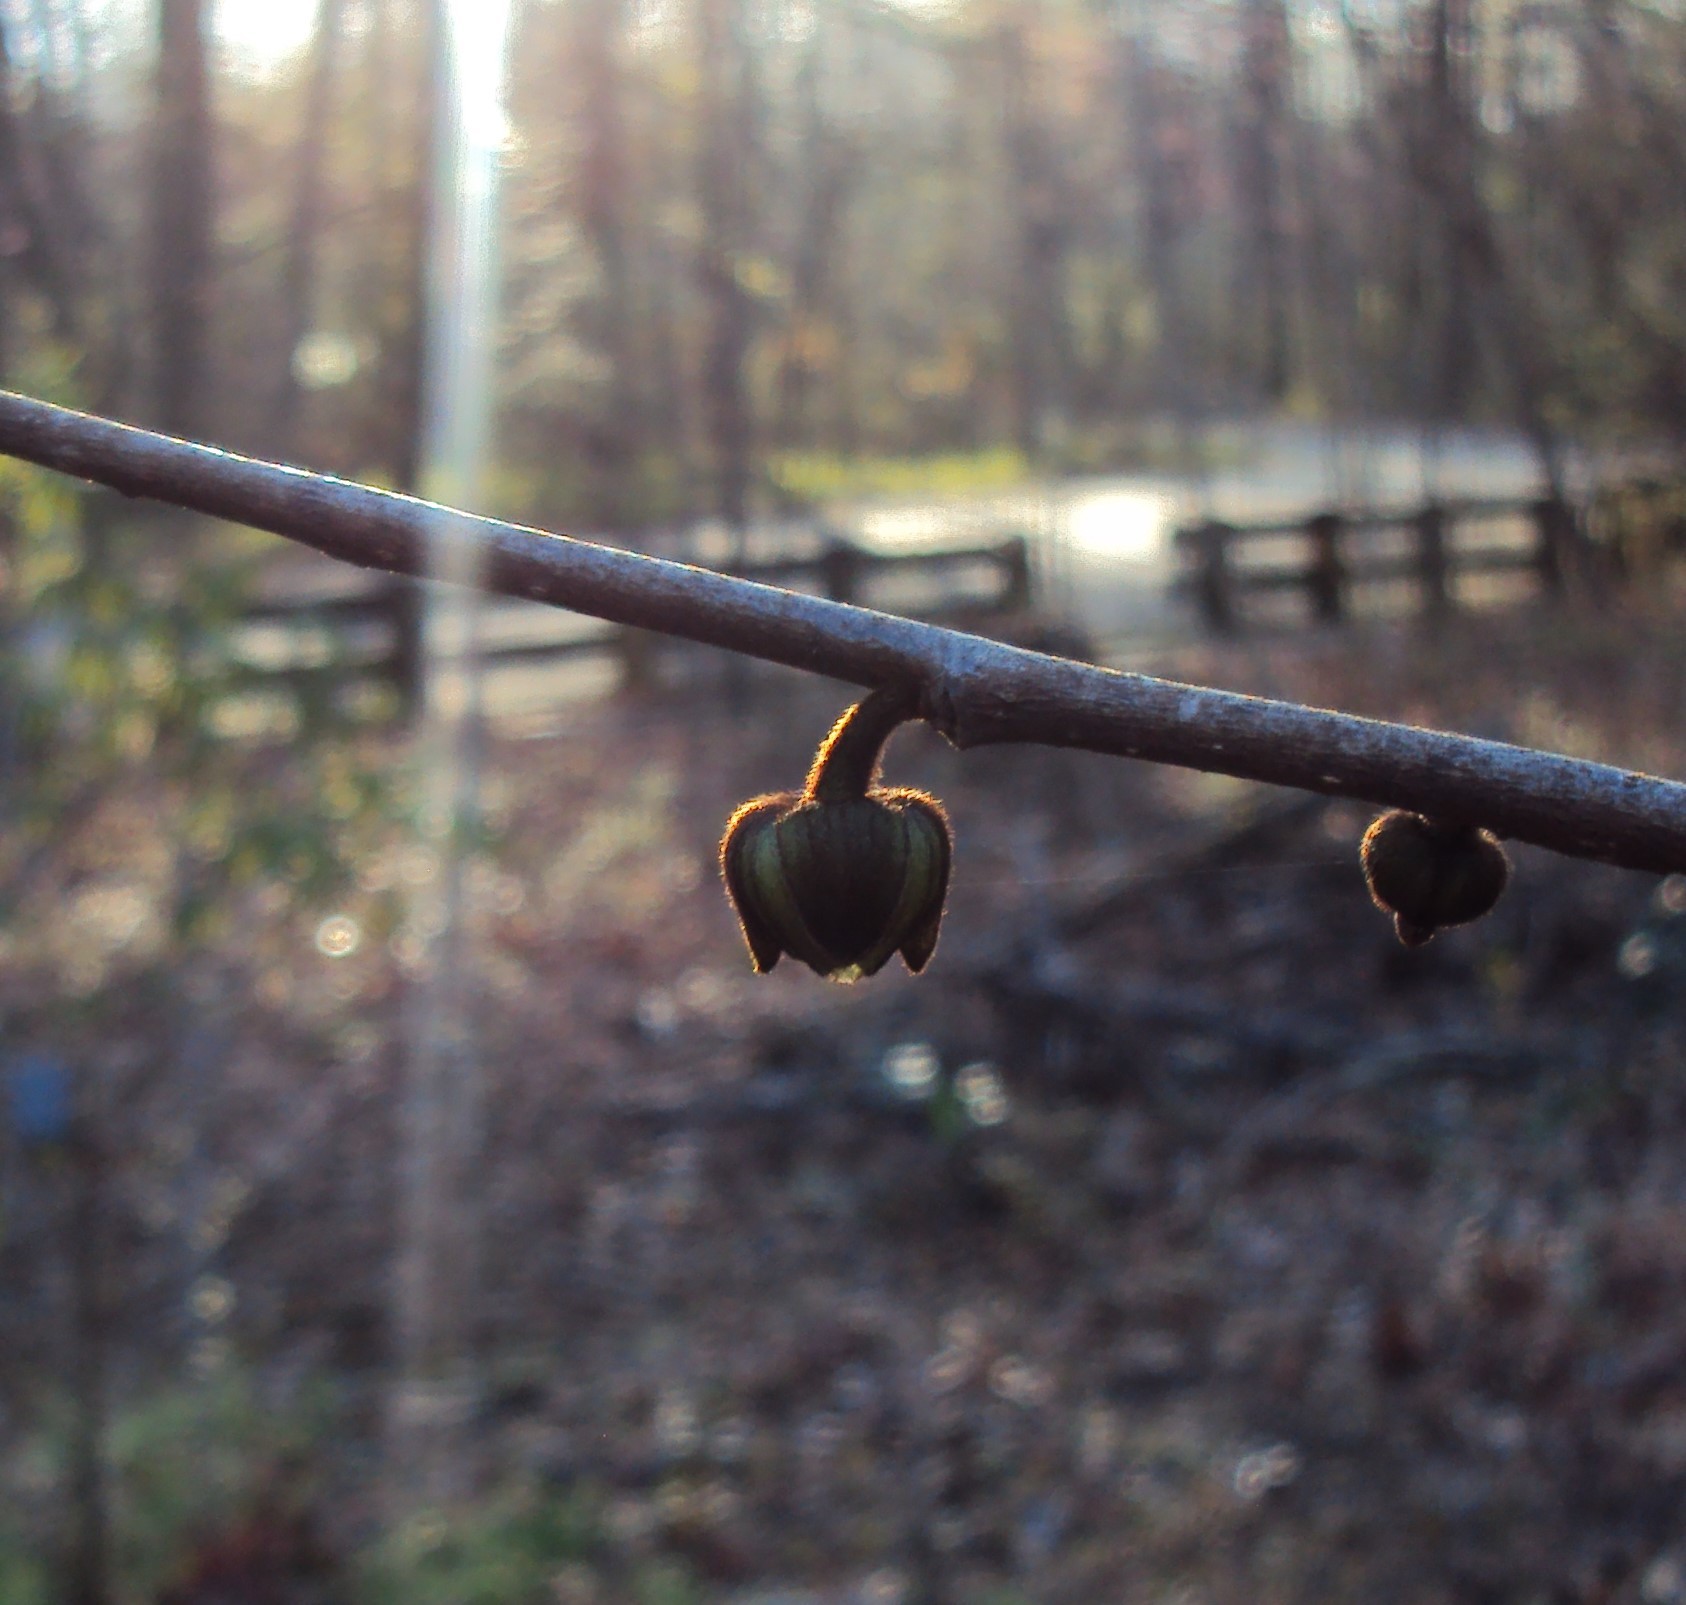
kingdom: Plantae
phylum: Tracheophyta
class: Magnoliopsida
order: Magnoliales
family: Annonaceae
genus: Asimina
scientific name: Asimina triloba
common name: Dog-banana
